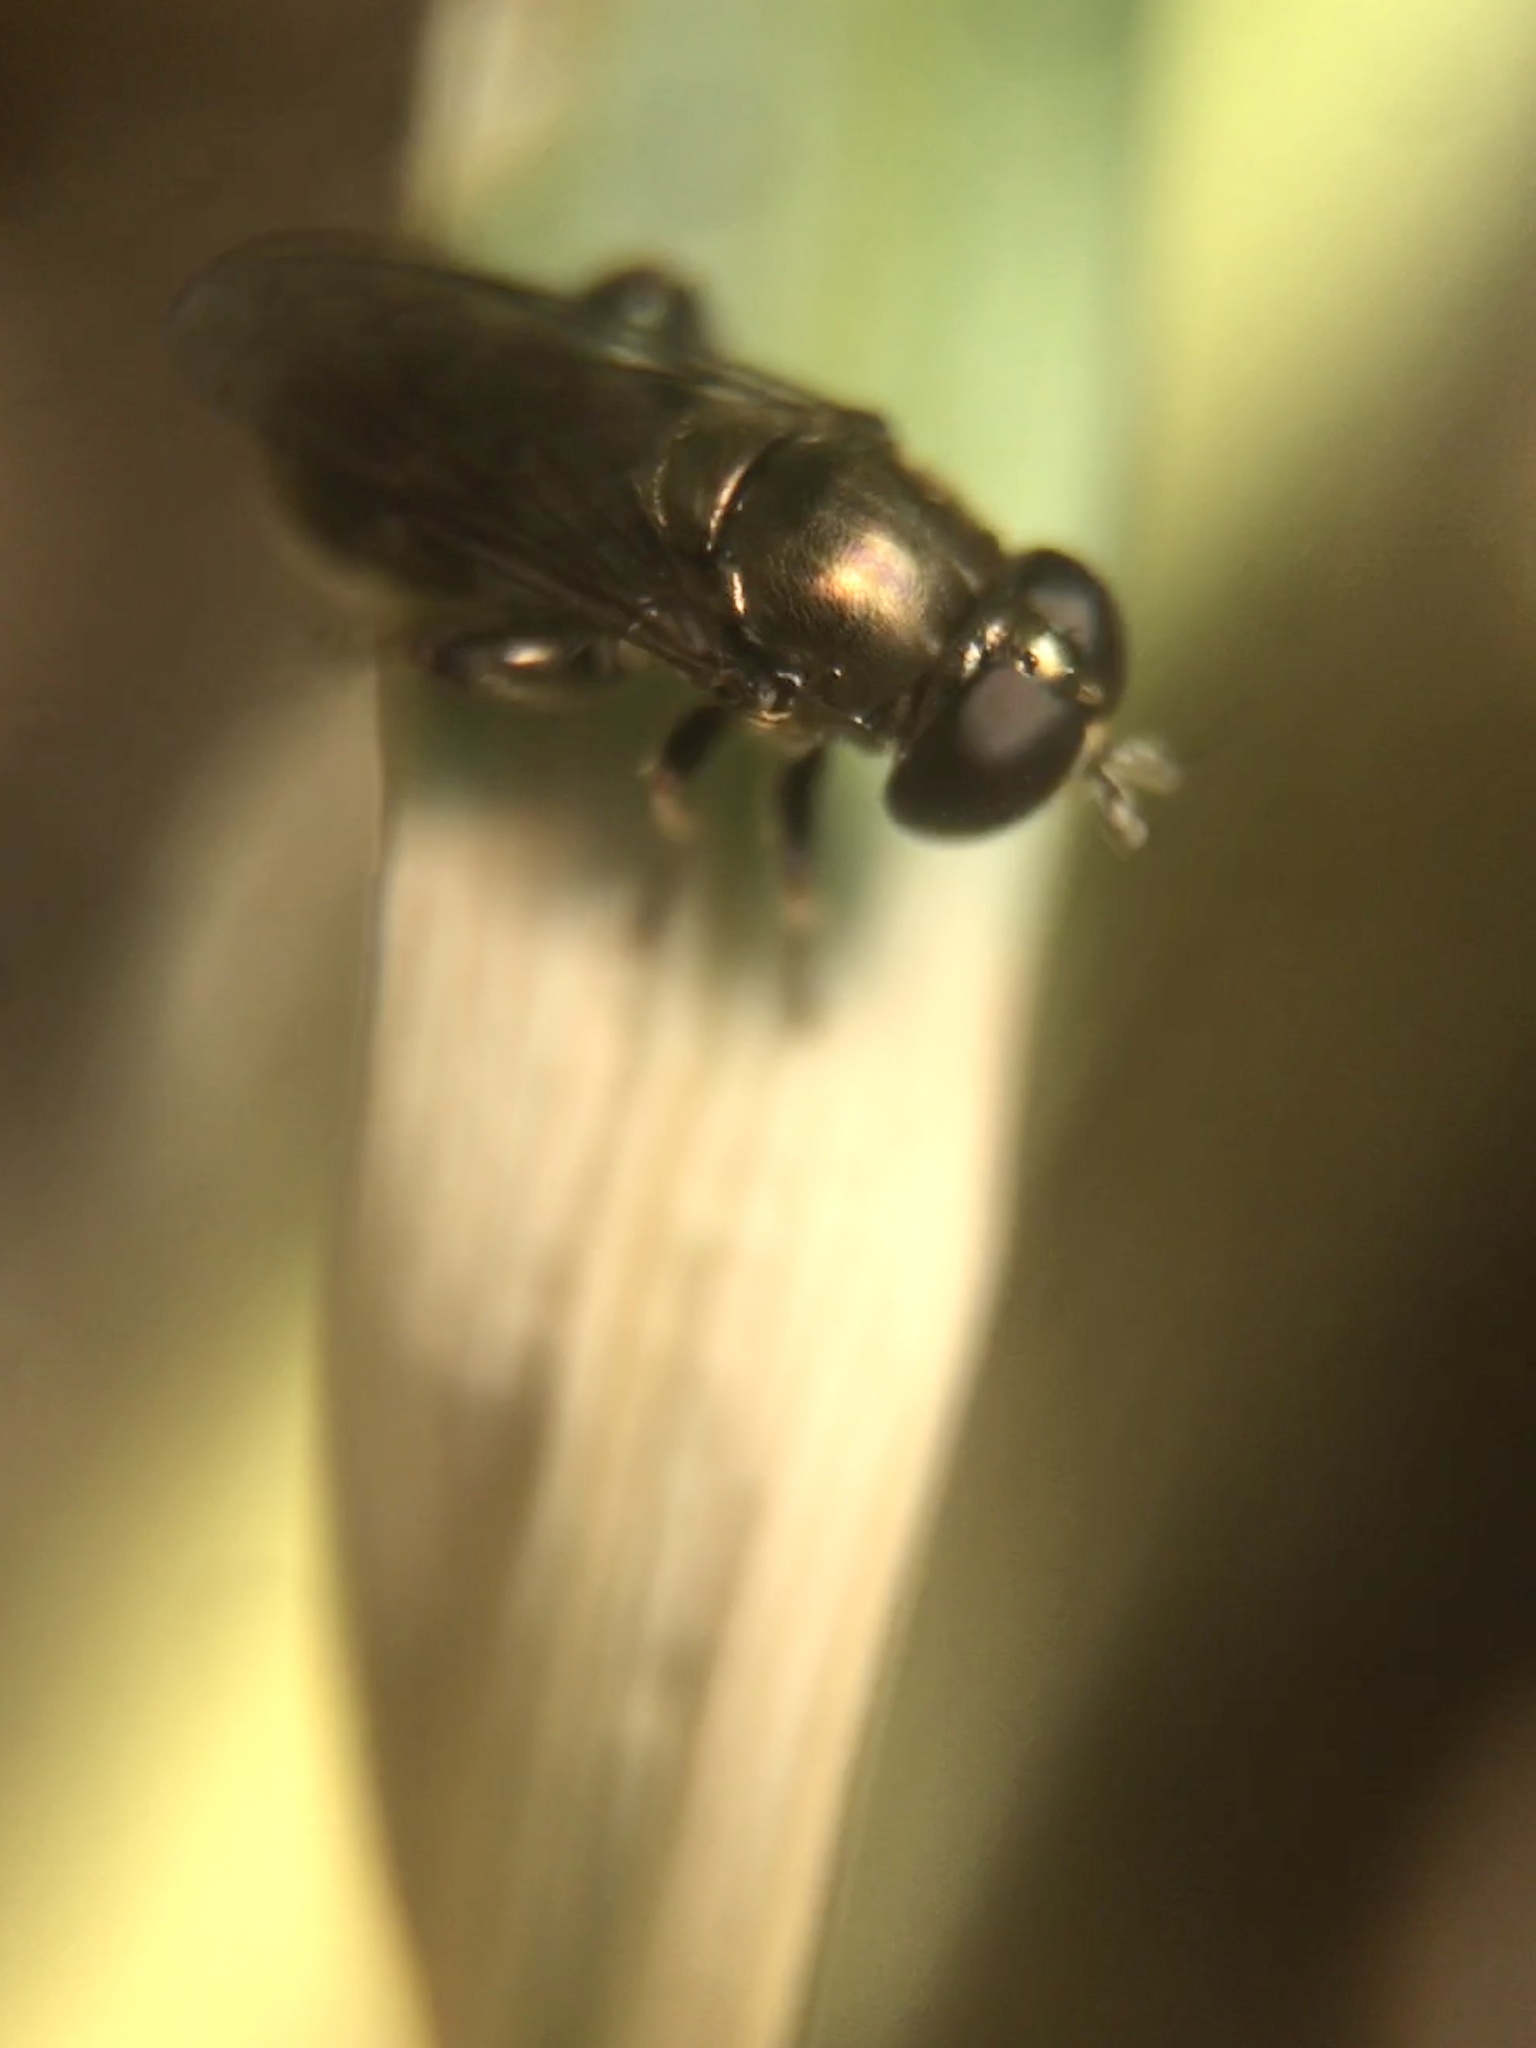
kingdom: Animalia
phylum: Arthropoda
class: Insecta
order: Diptera
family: Syrphidae
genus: Eumerus
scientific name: Eumerus
